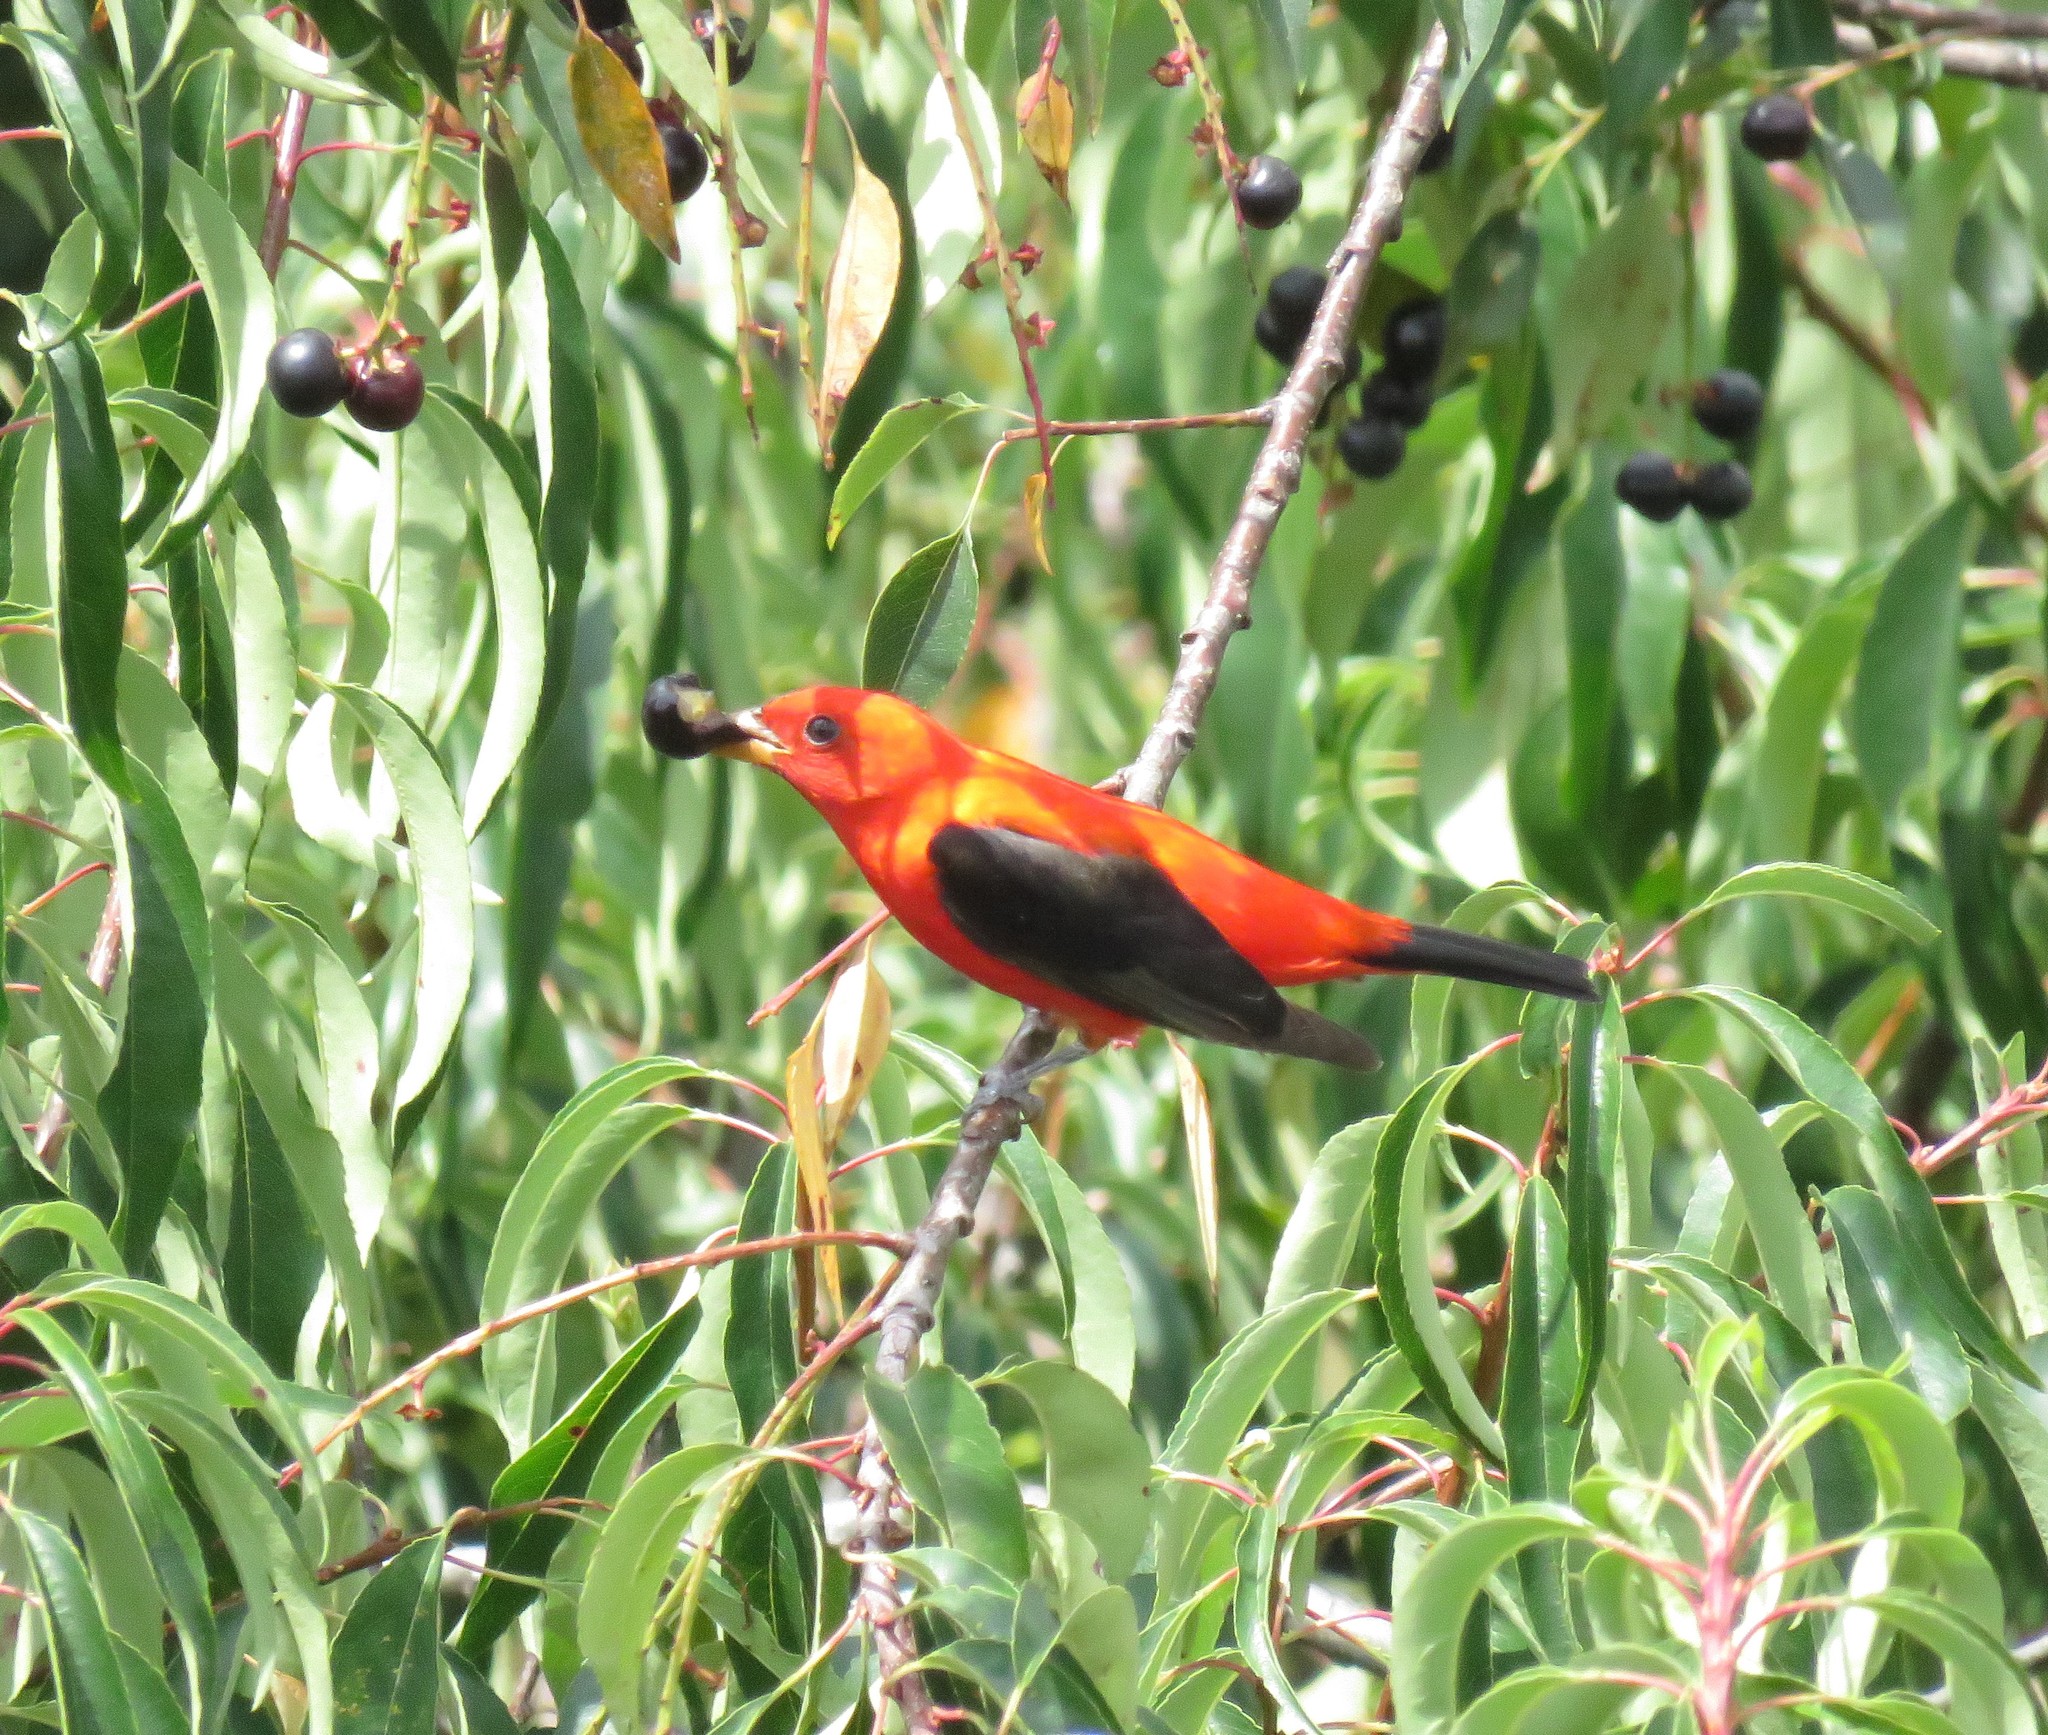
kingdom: Animalia
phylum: Chordata
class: Aves
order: Passeriformes
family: Cardinalidae
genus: Piranga
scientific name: Piranga olivacea
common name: Scarlet tanager
